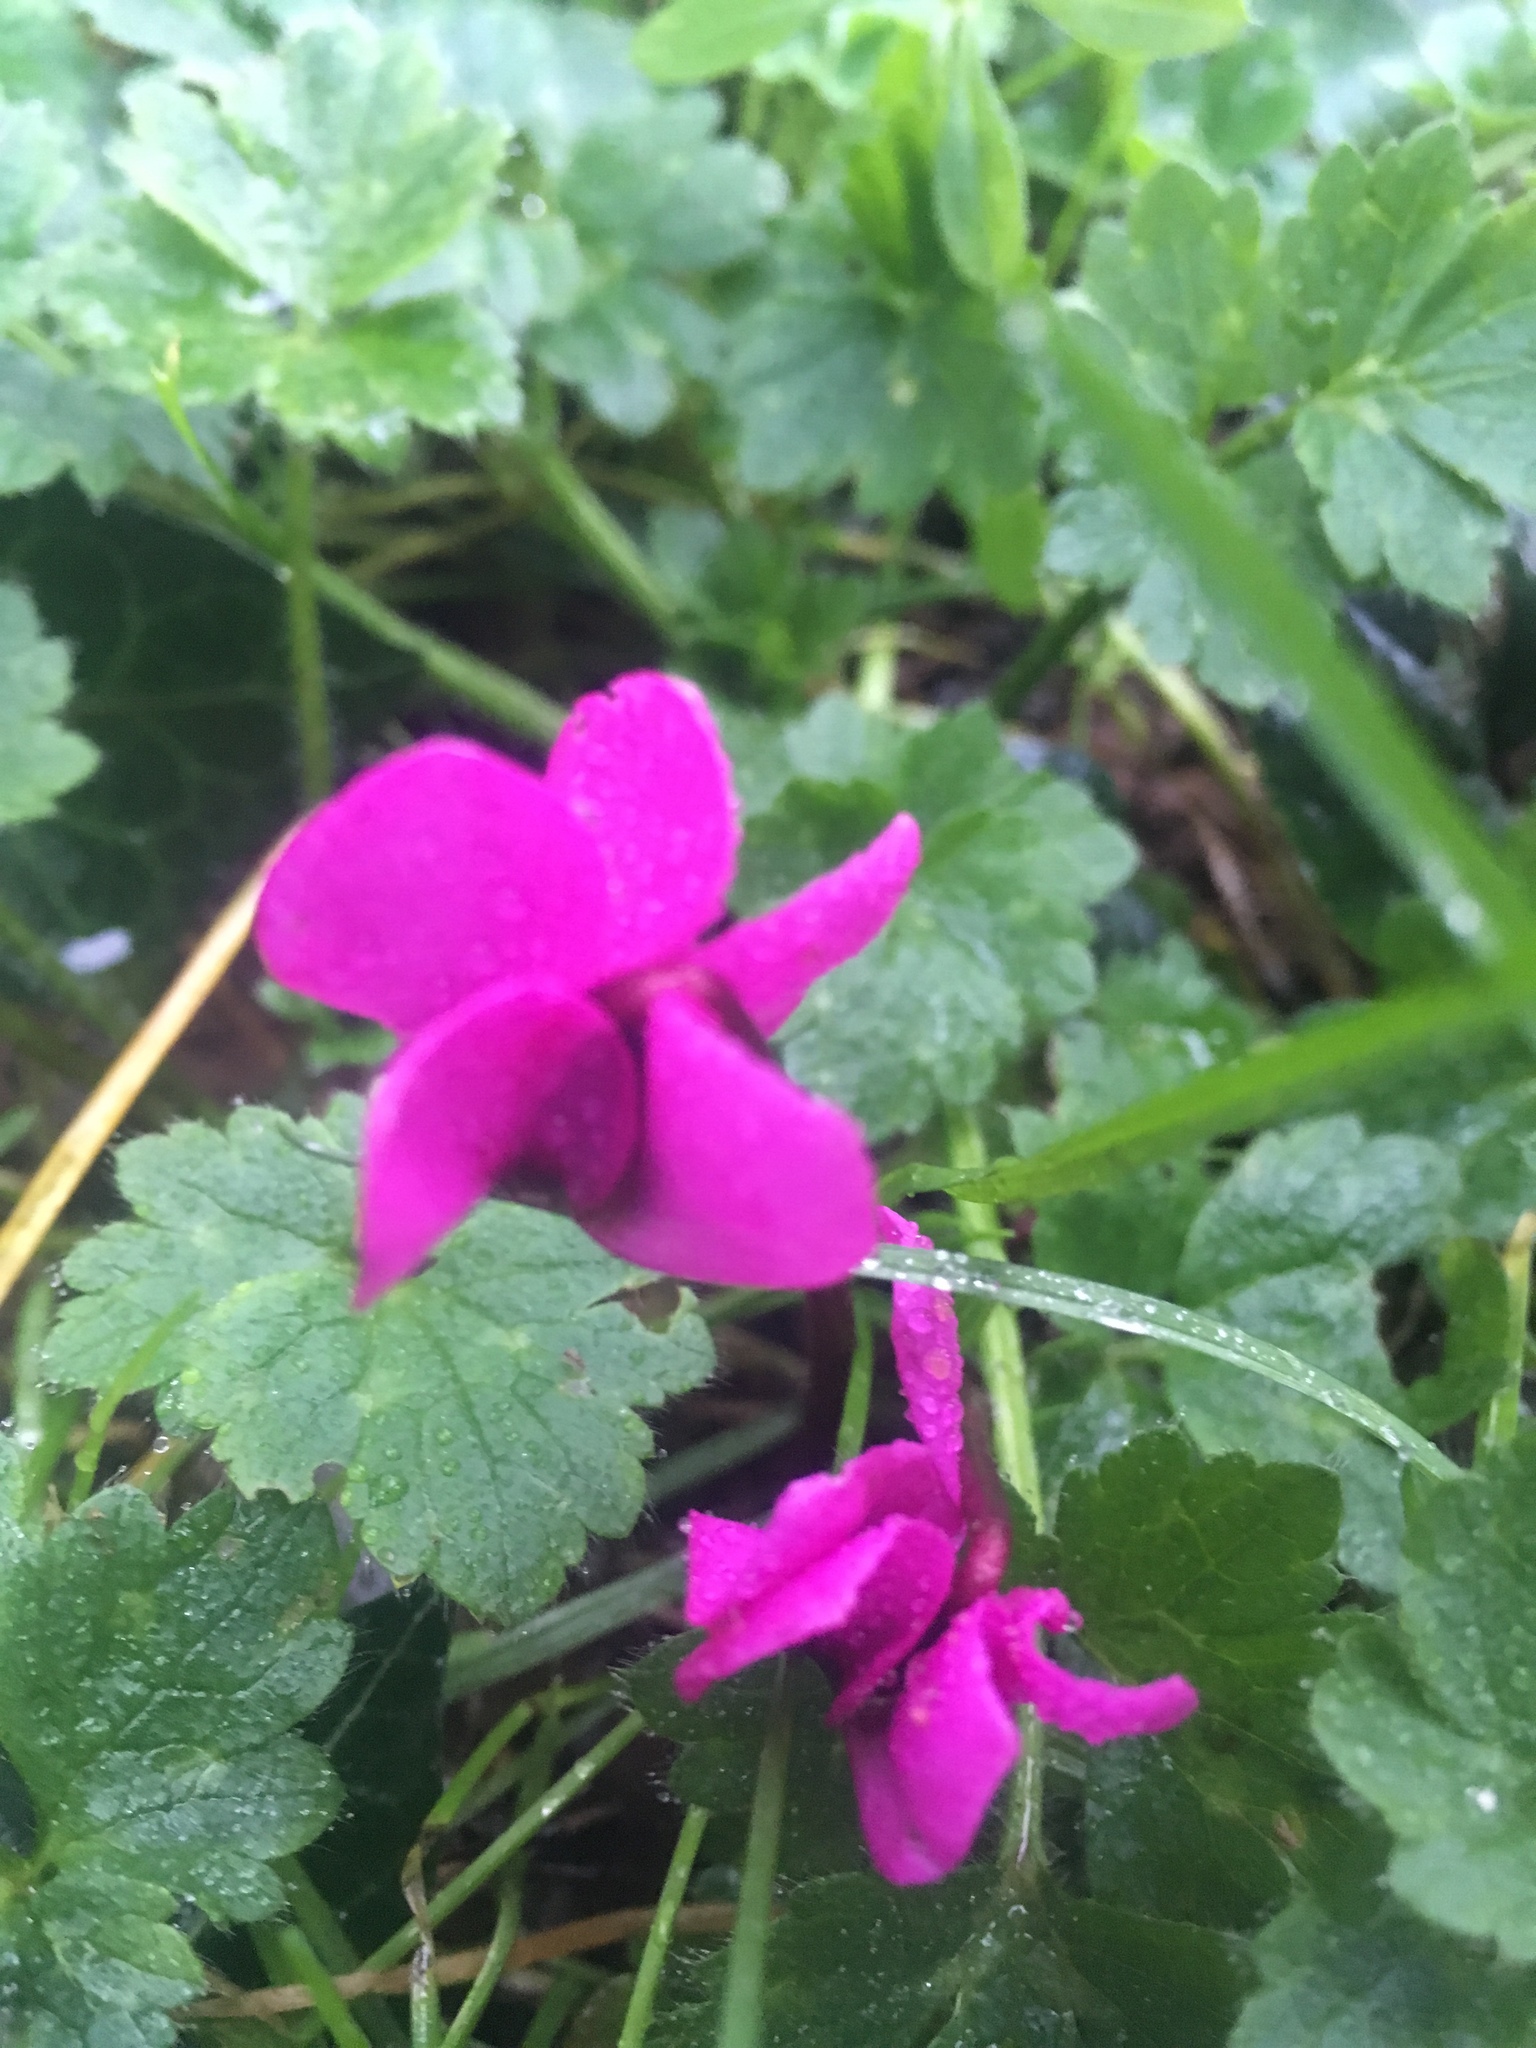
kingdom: Plantae
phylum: Tracheophyta
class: Magnoliopsida
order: Ericales
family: Primulaceae
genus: Cyclamen
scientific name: Cyclamen coum
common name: Eastern sowbread
